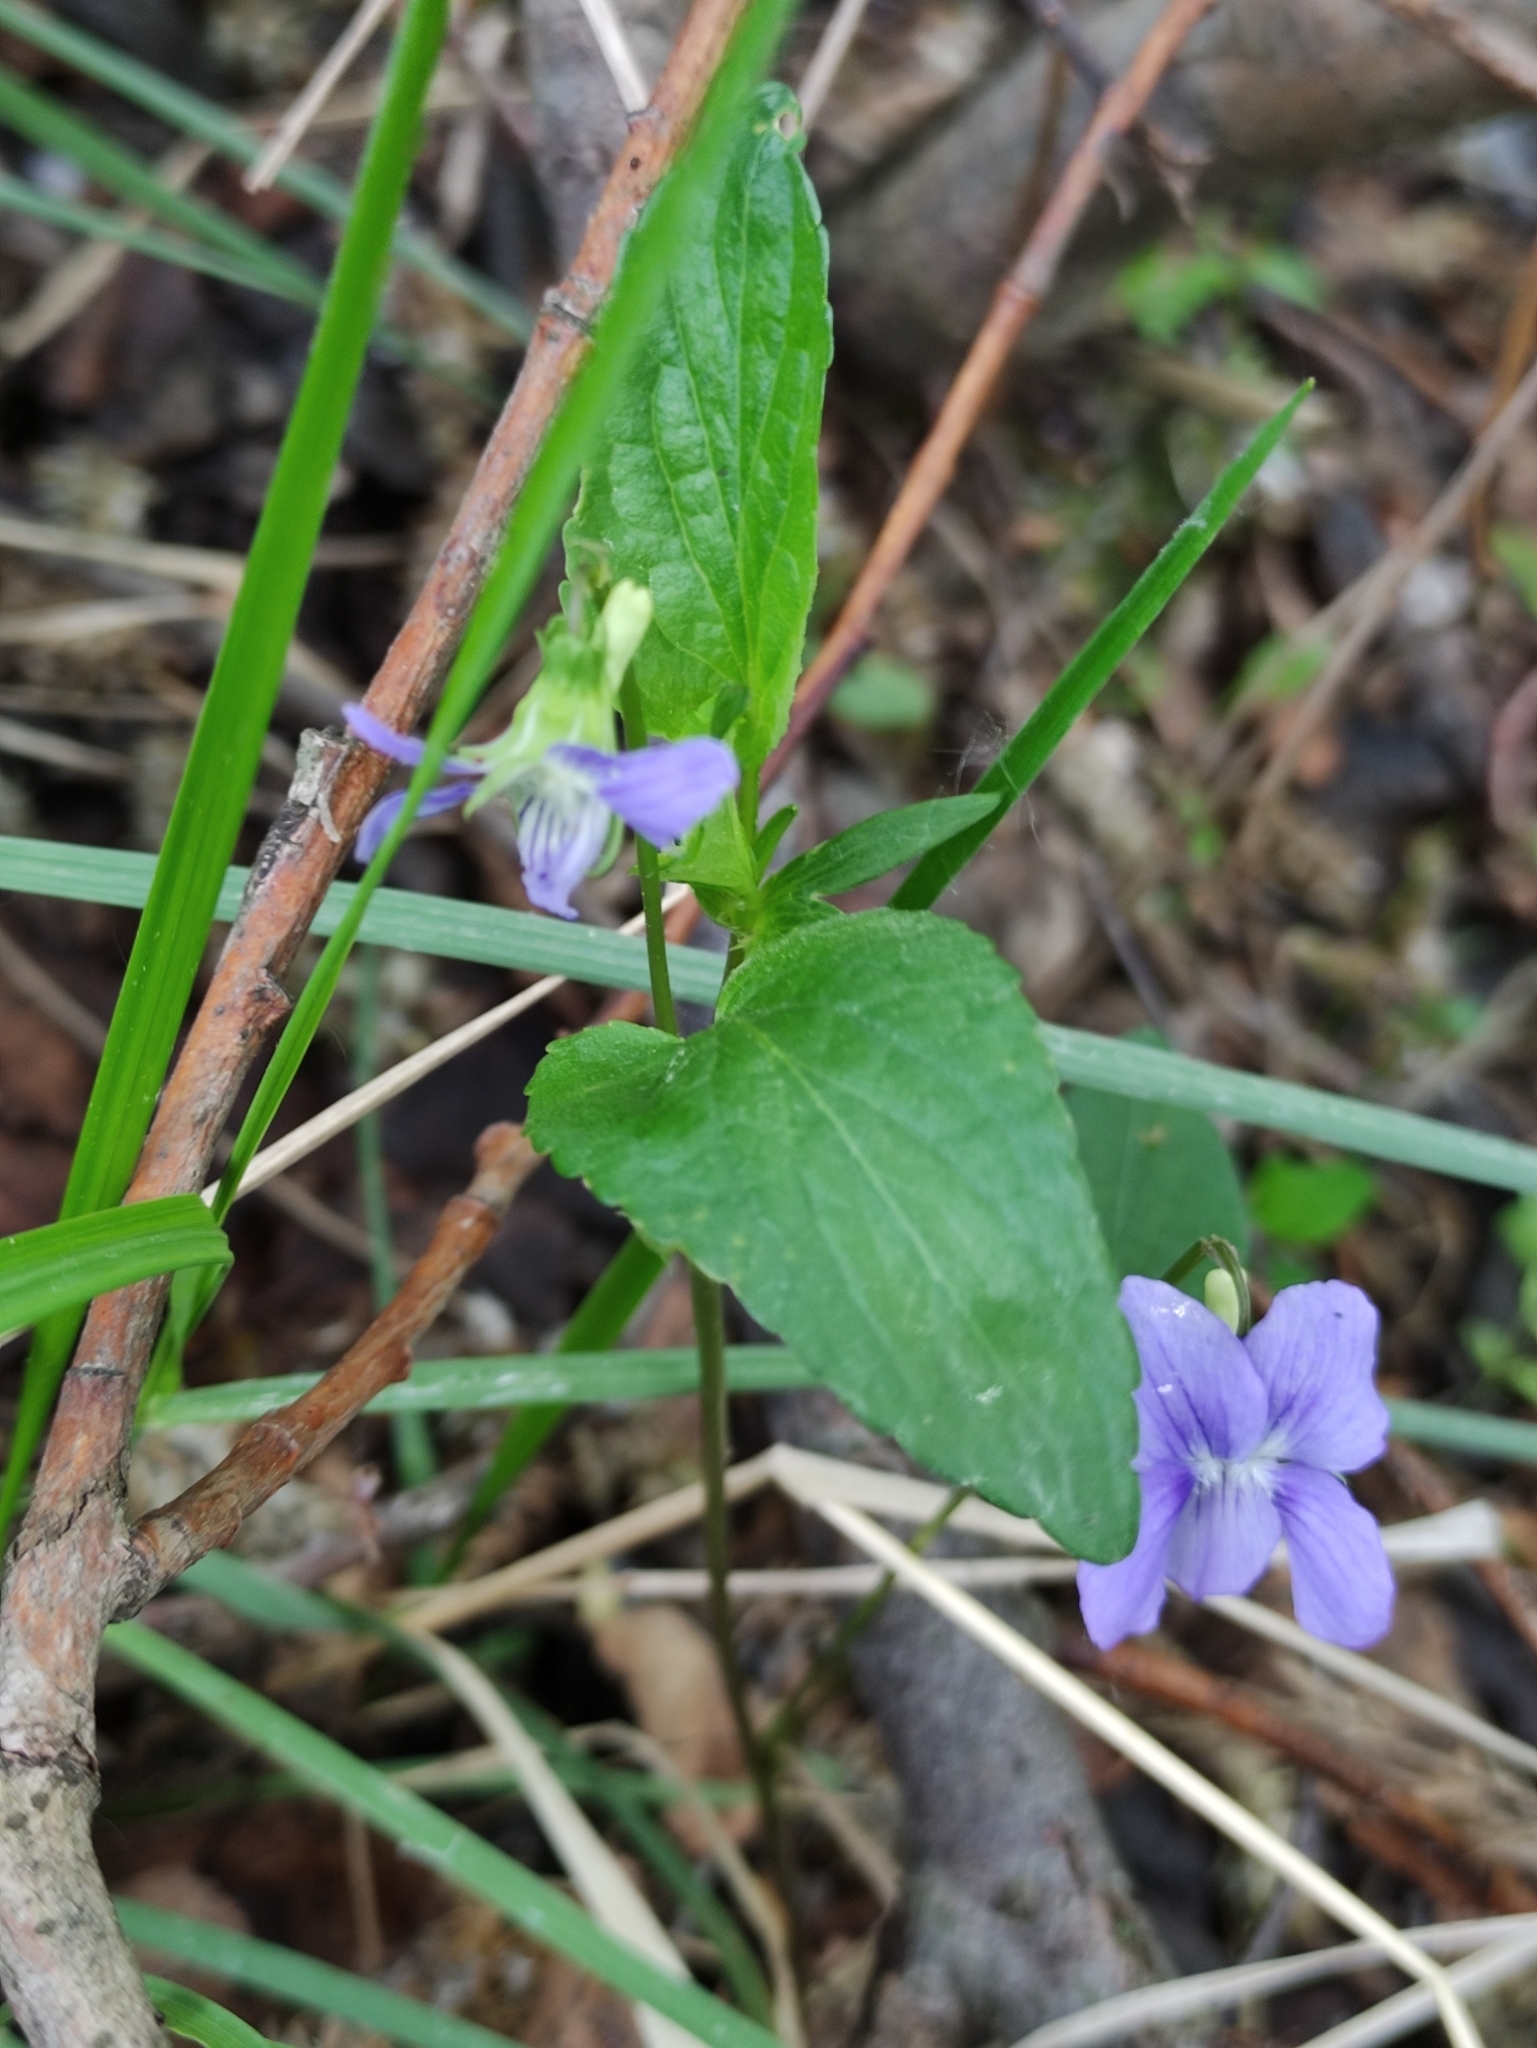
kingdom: Plantae
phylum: Tracheophyta
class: Magnoliopsida
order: Malpighiales
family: Violaceae
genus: Viola
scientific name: Viola
